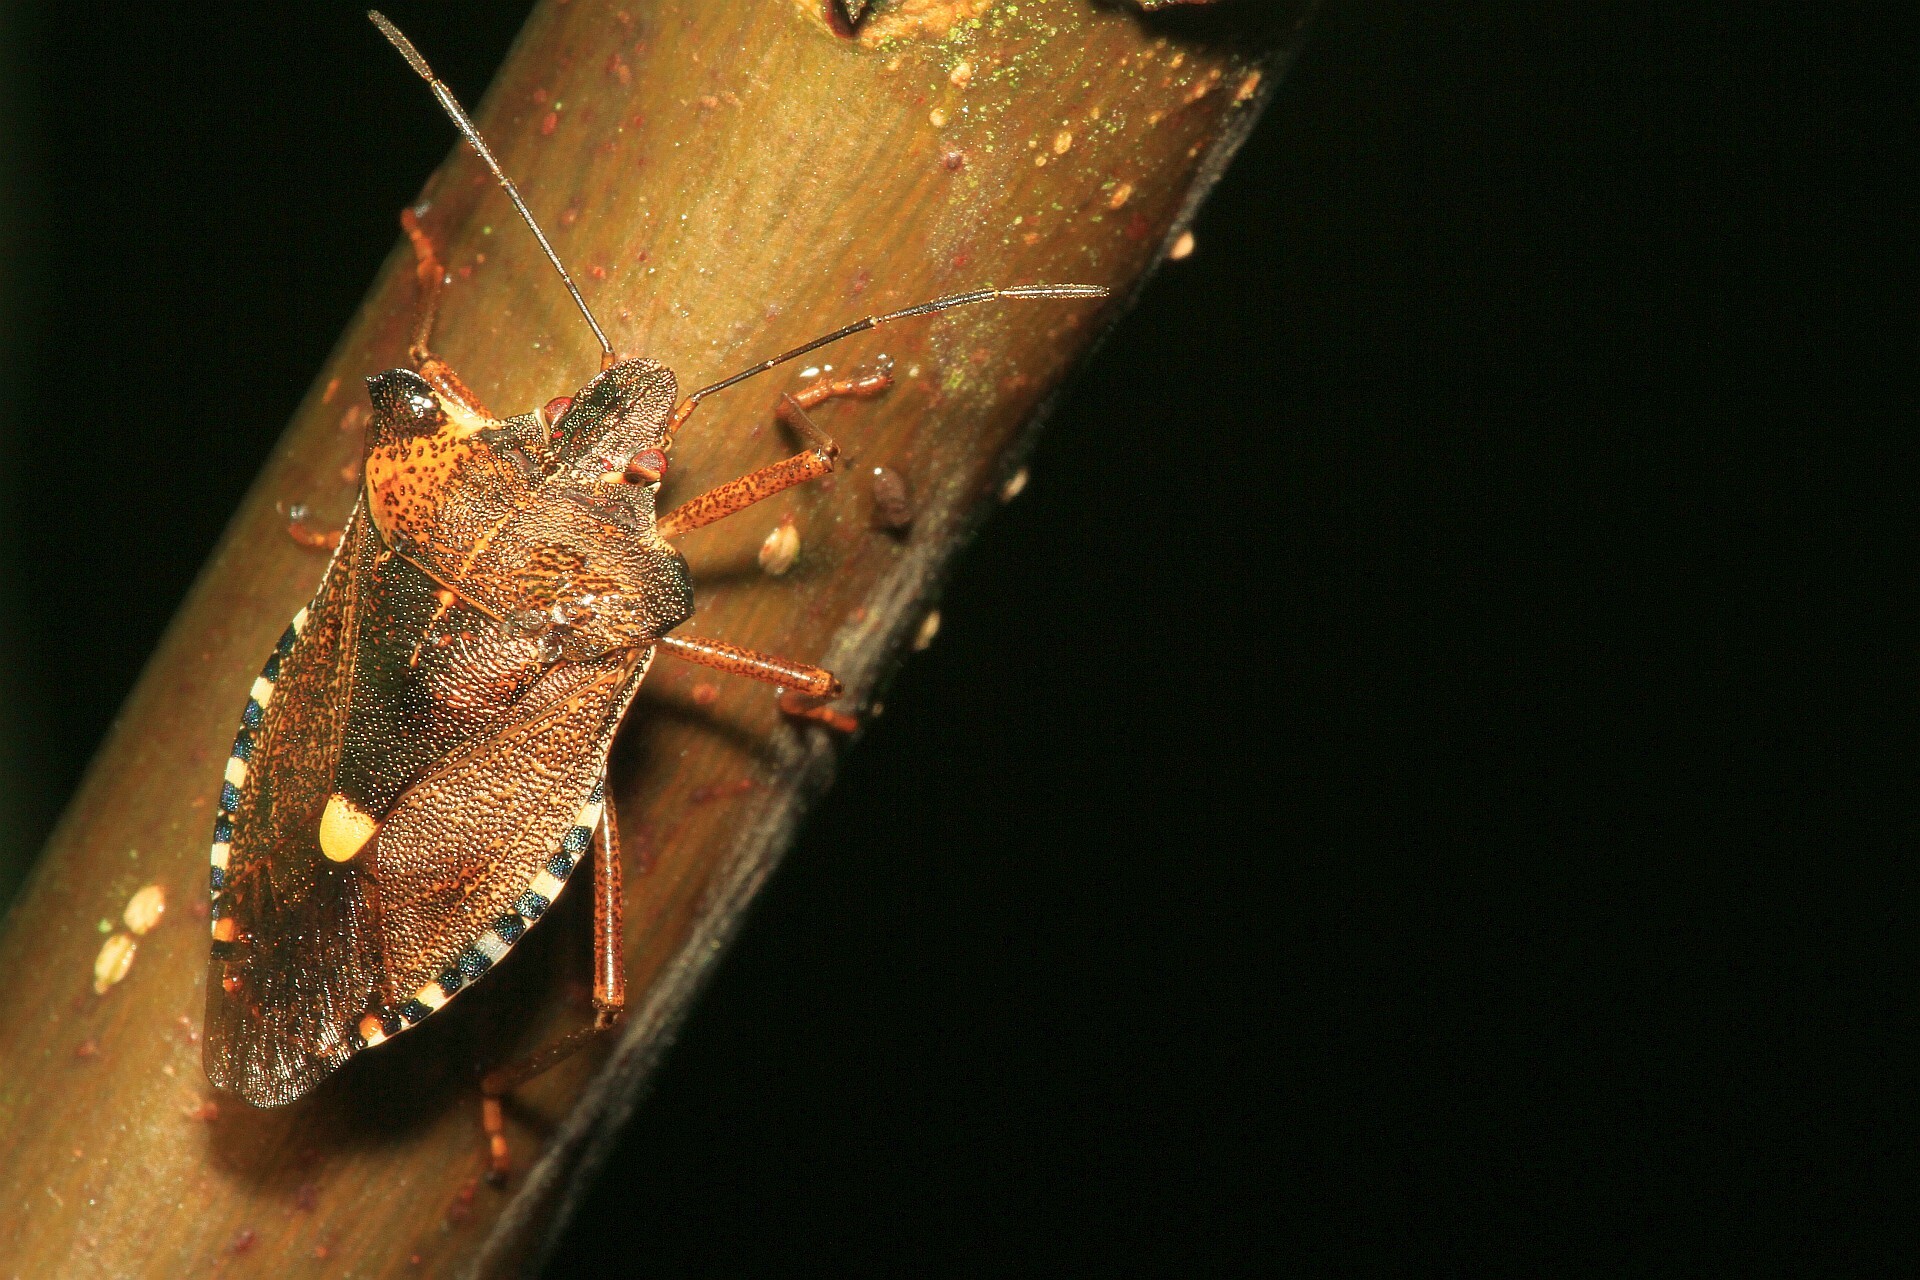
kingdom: Animalia
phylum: Arthropoda
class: Insecta
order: Hemiptera
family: Pentatomidae
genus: Pentatoma
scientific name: Pentatoma rufipes
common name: Forest bug
